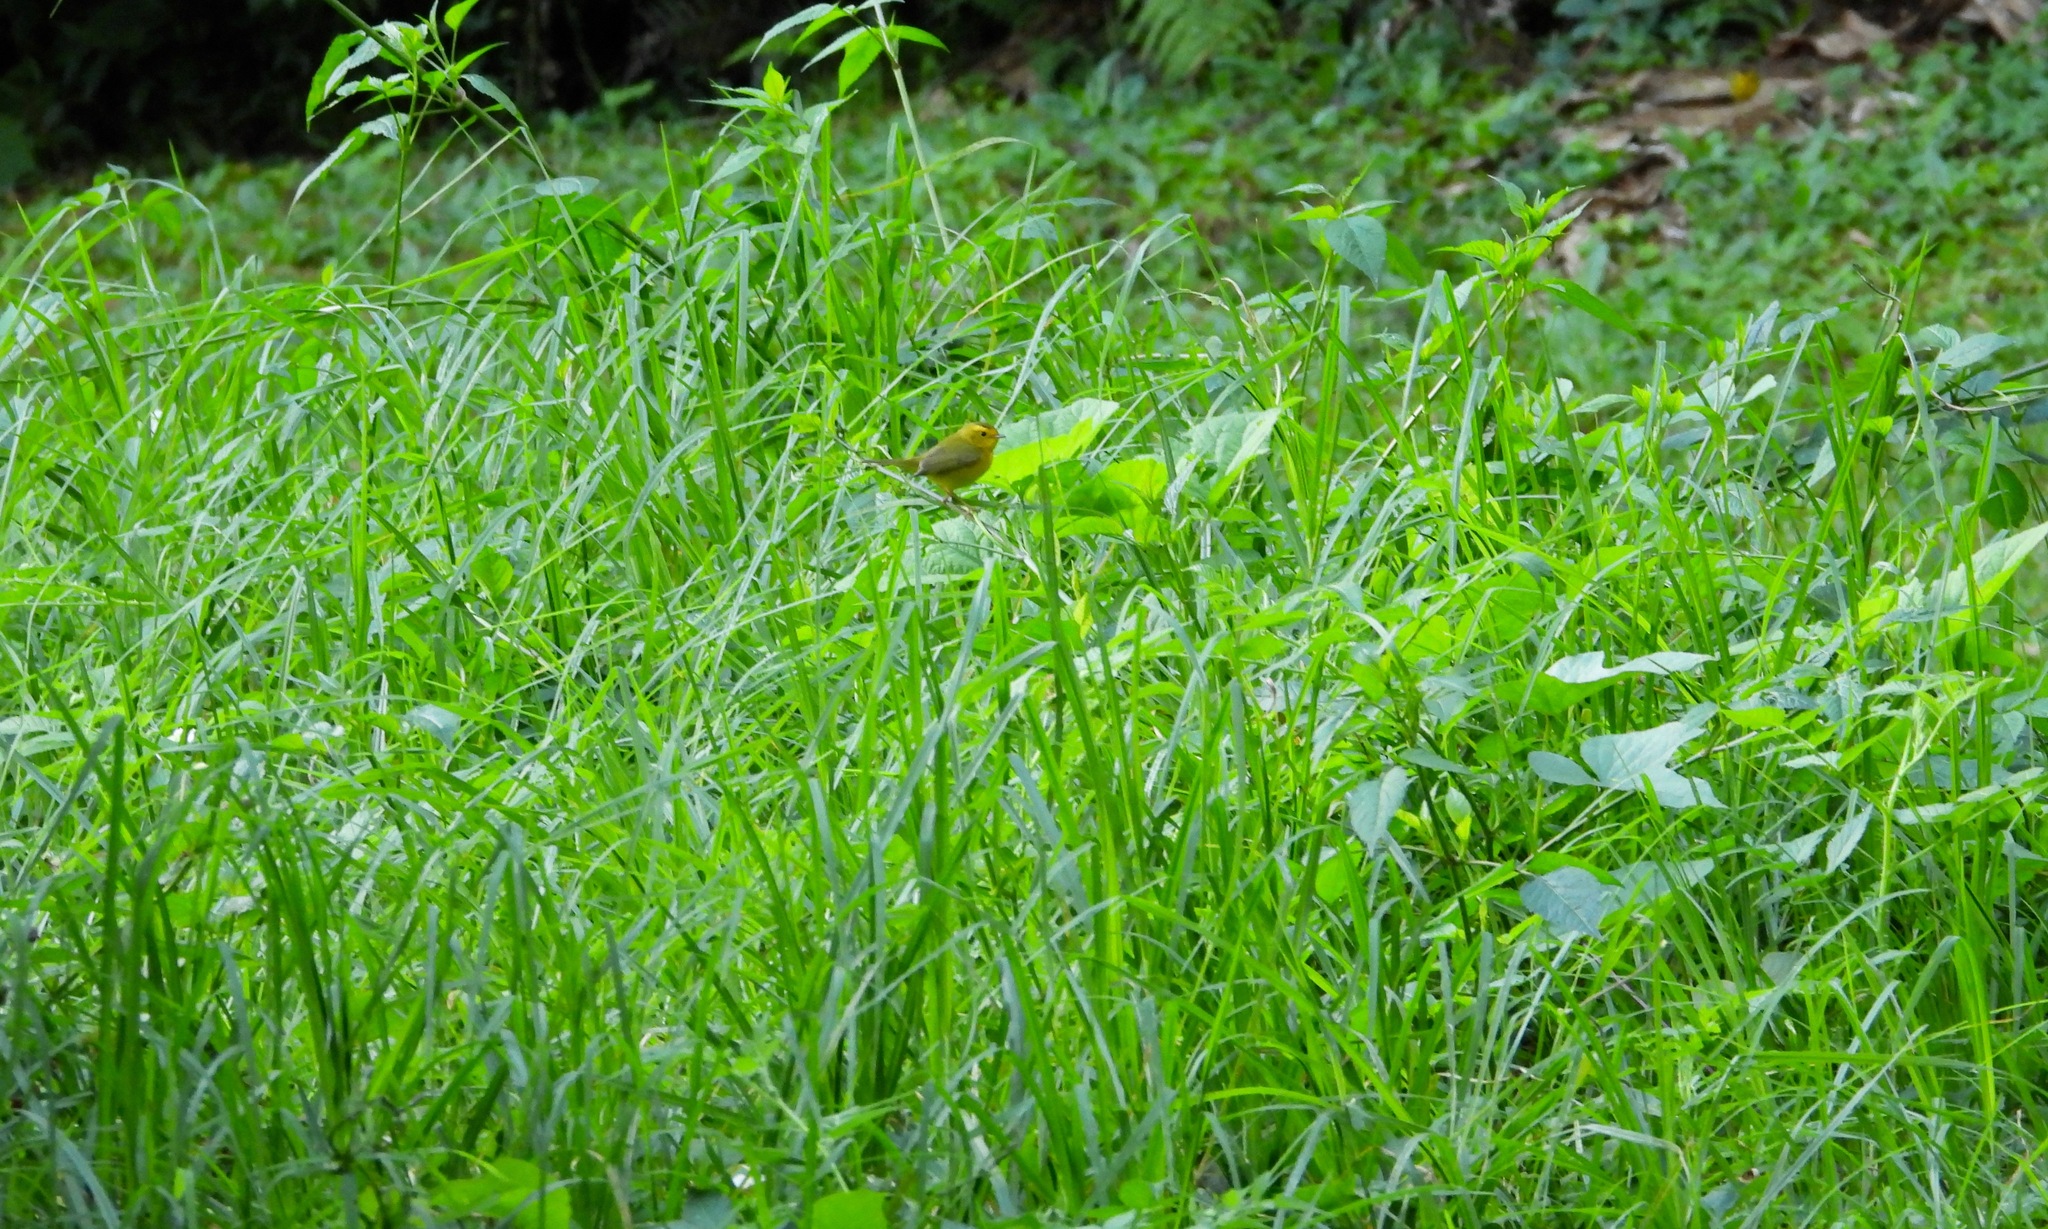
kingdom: Animalia
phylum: Chordata
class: Aves
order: Passeriformes
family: Parulidae
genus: Cardellina
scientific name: Cardellina pusilla
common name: Wilson's warbler
